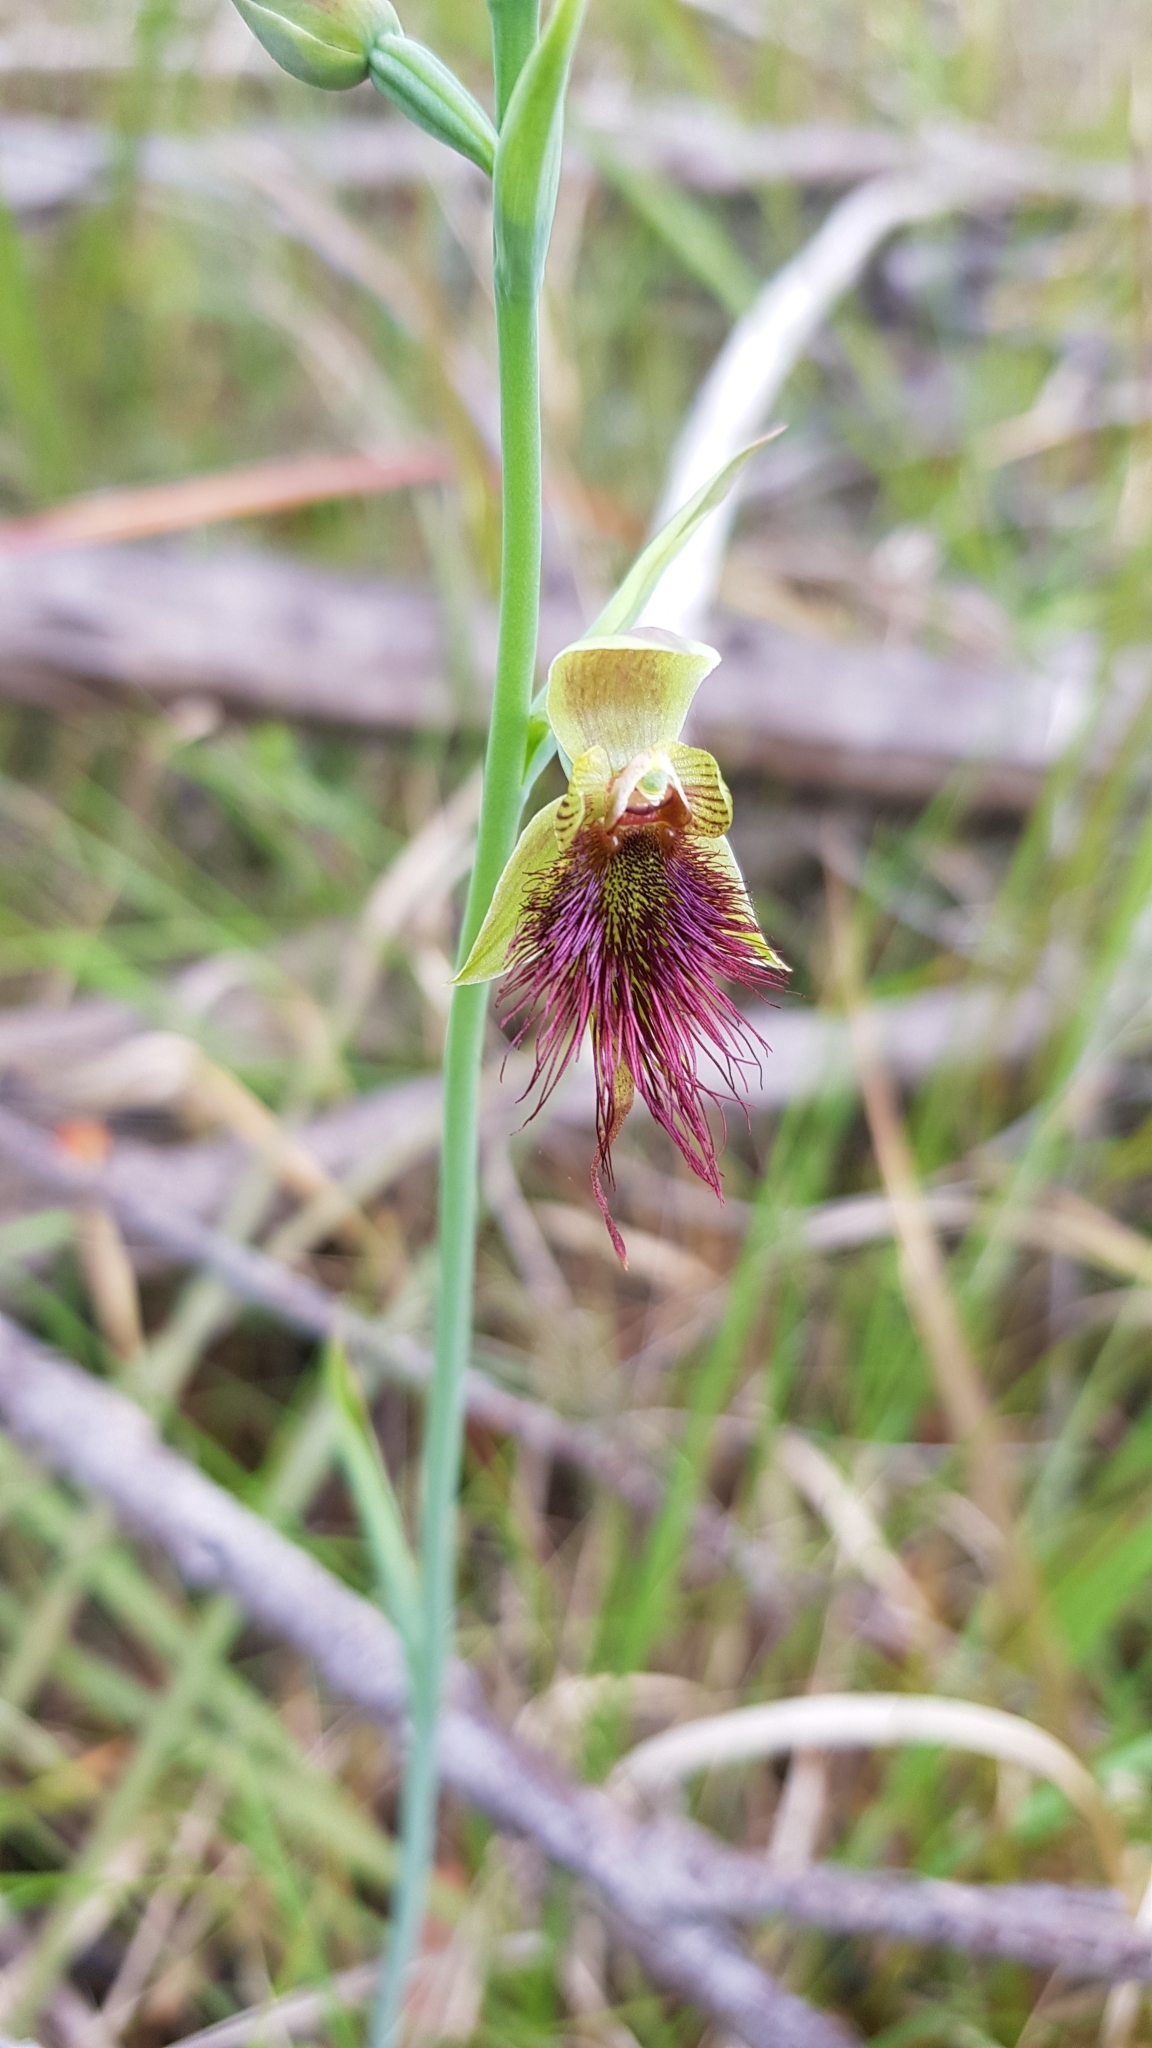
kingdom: Plantae
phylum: Tracheophyta
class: Liliopsida
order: Asparagales
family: Orchidaceae
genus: Calochilus
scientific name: Calochilus paludosus
